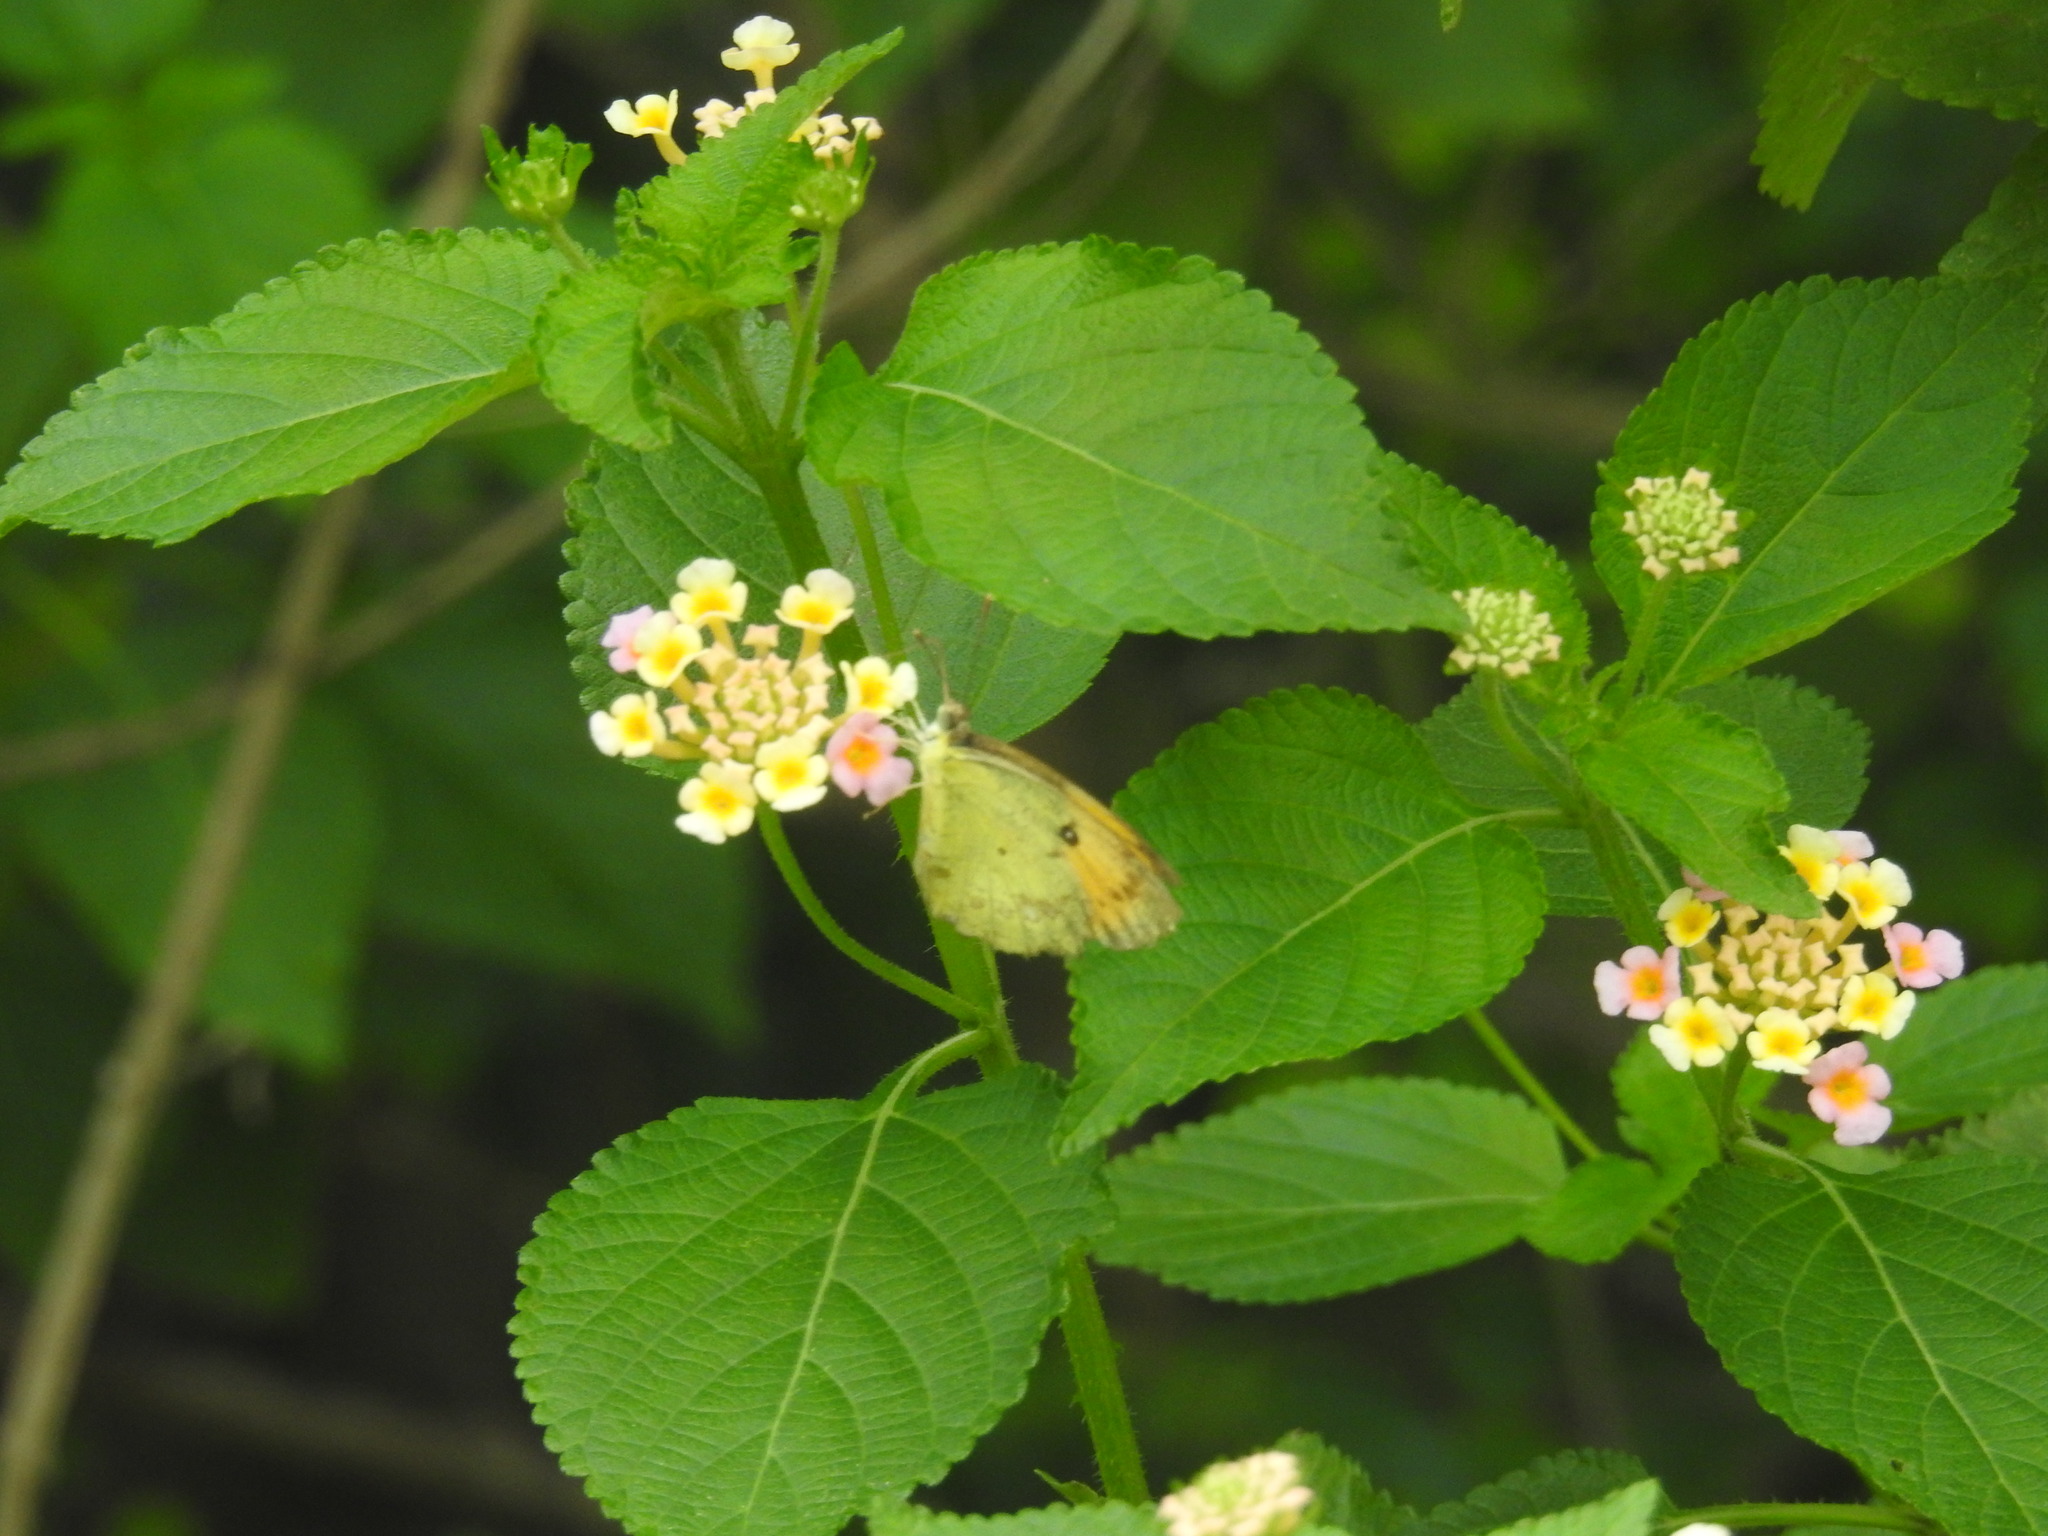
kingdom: Animalia
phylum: Arthropoda
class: Insecta
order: Lepidoptera
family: Pieridae
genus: Ixias
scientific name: Ixias pyrene
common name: Yellow orange tip
